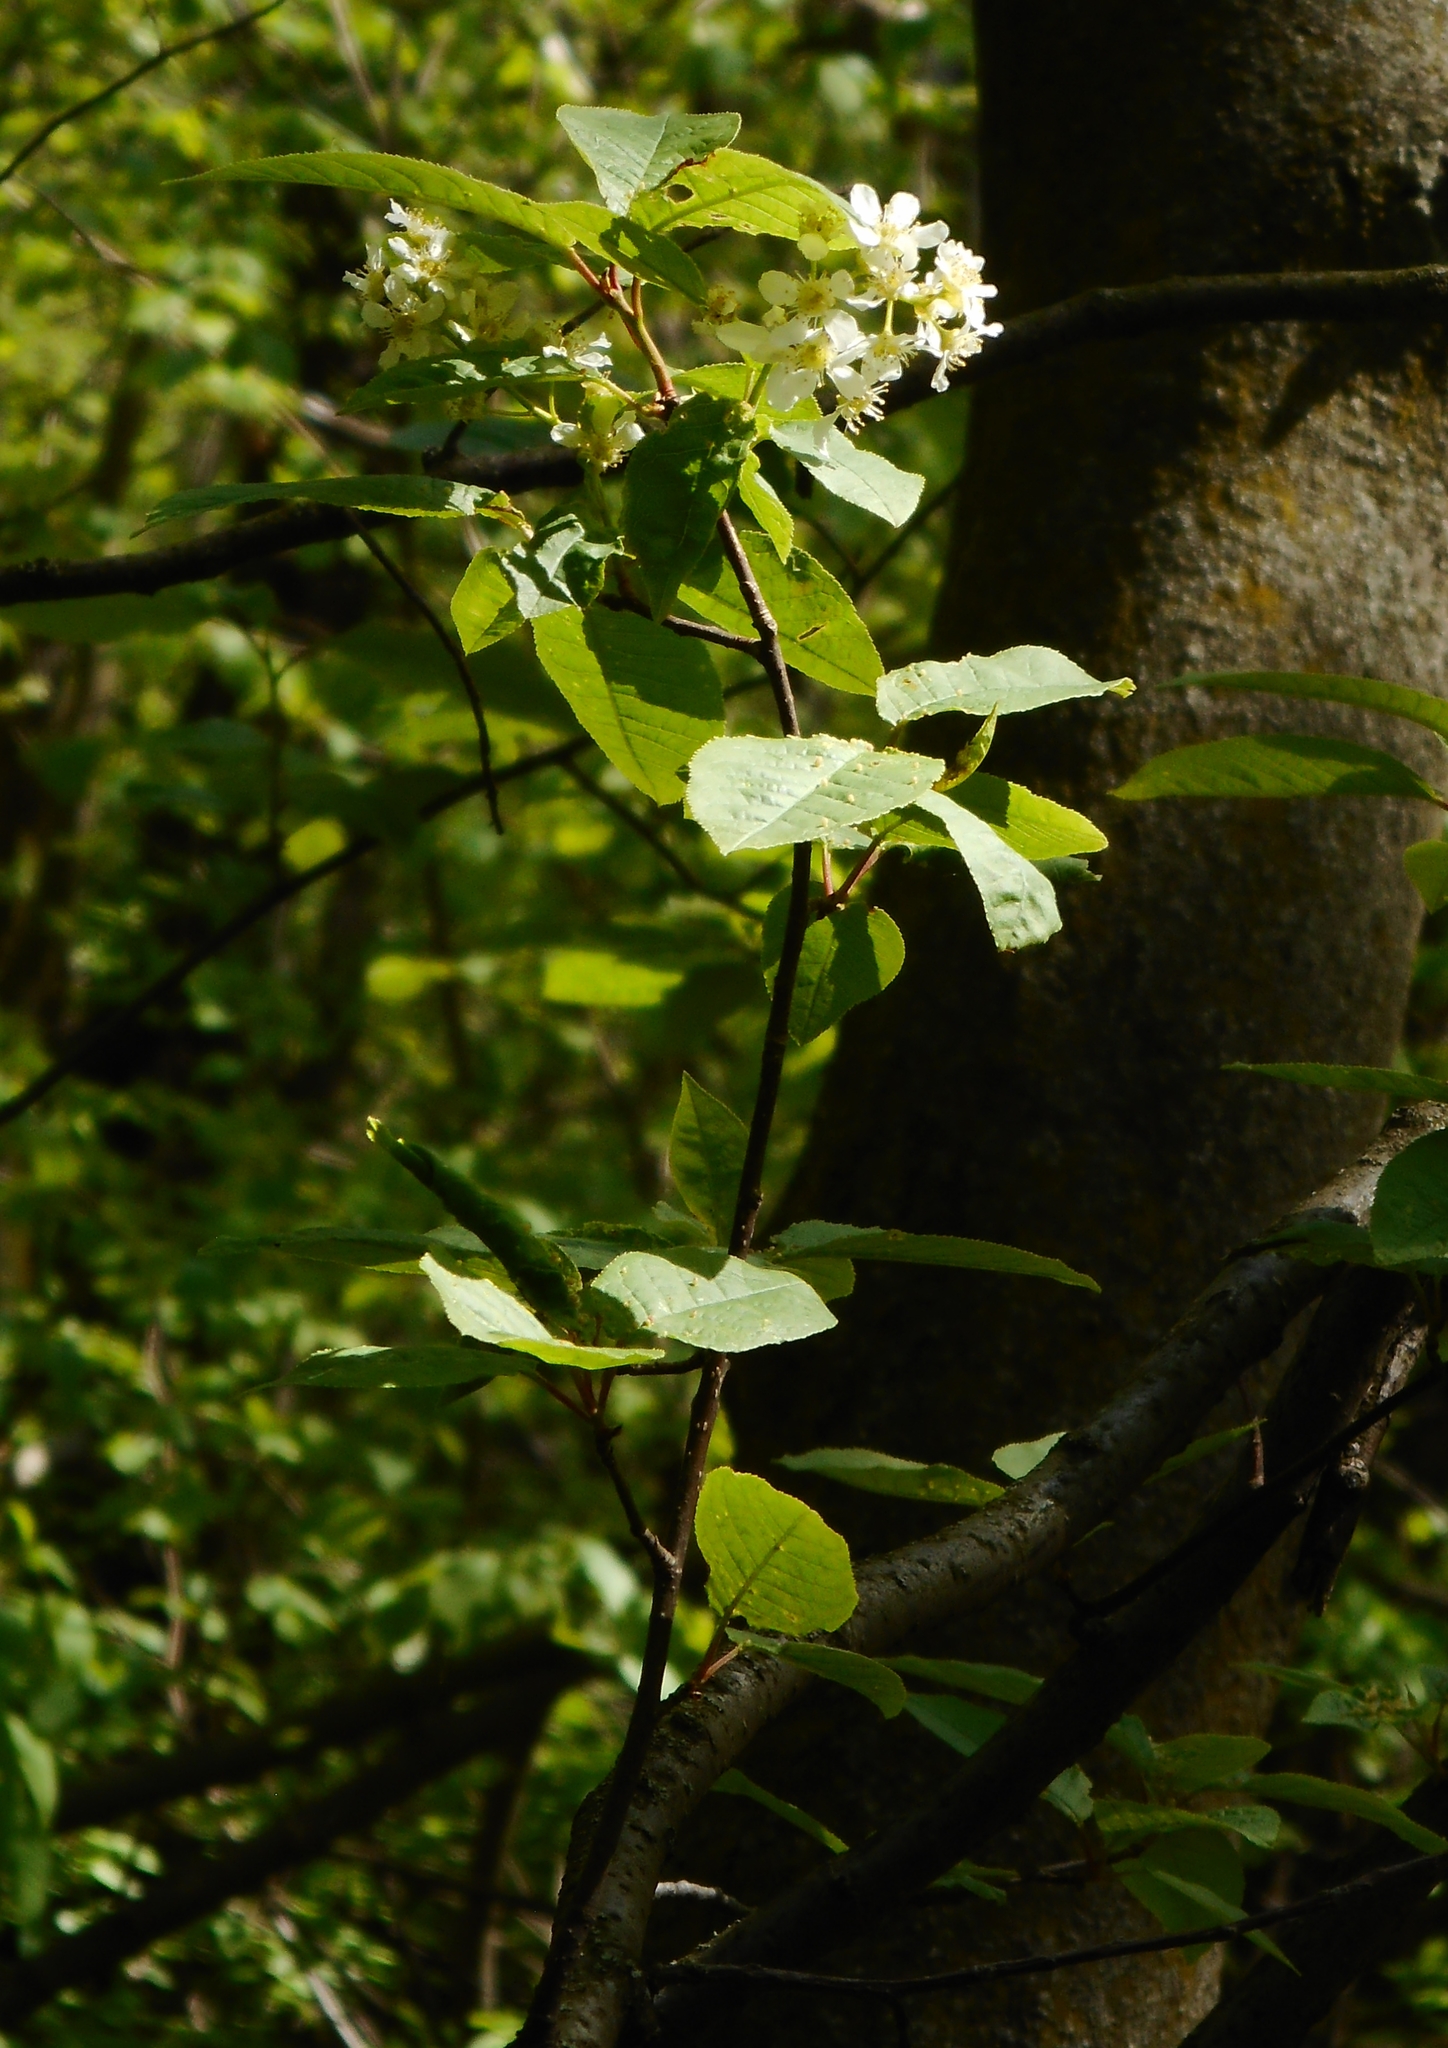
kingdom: Plantae
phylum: Tracheophyta
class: Magnoliopsida
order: Rosales
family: Rosaceae
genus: Prunus
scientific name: Prunus padus
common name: Bird cherry
